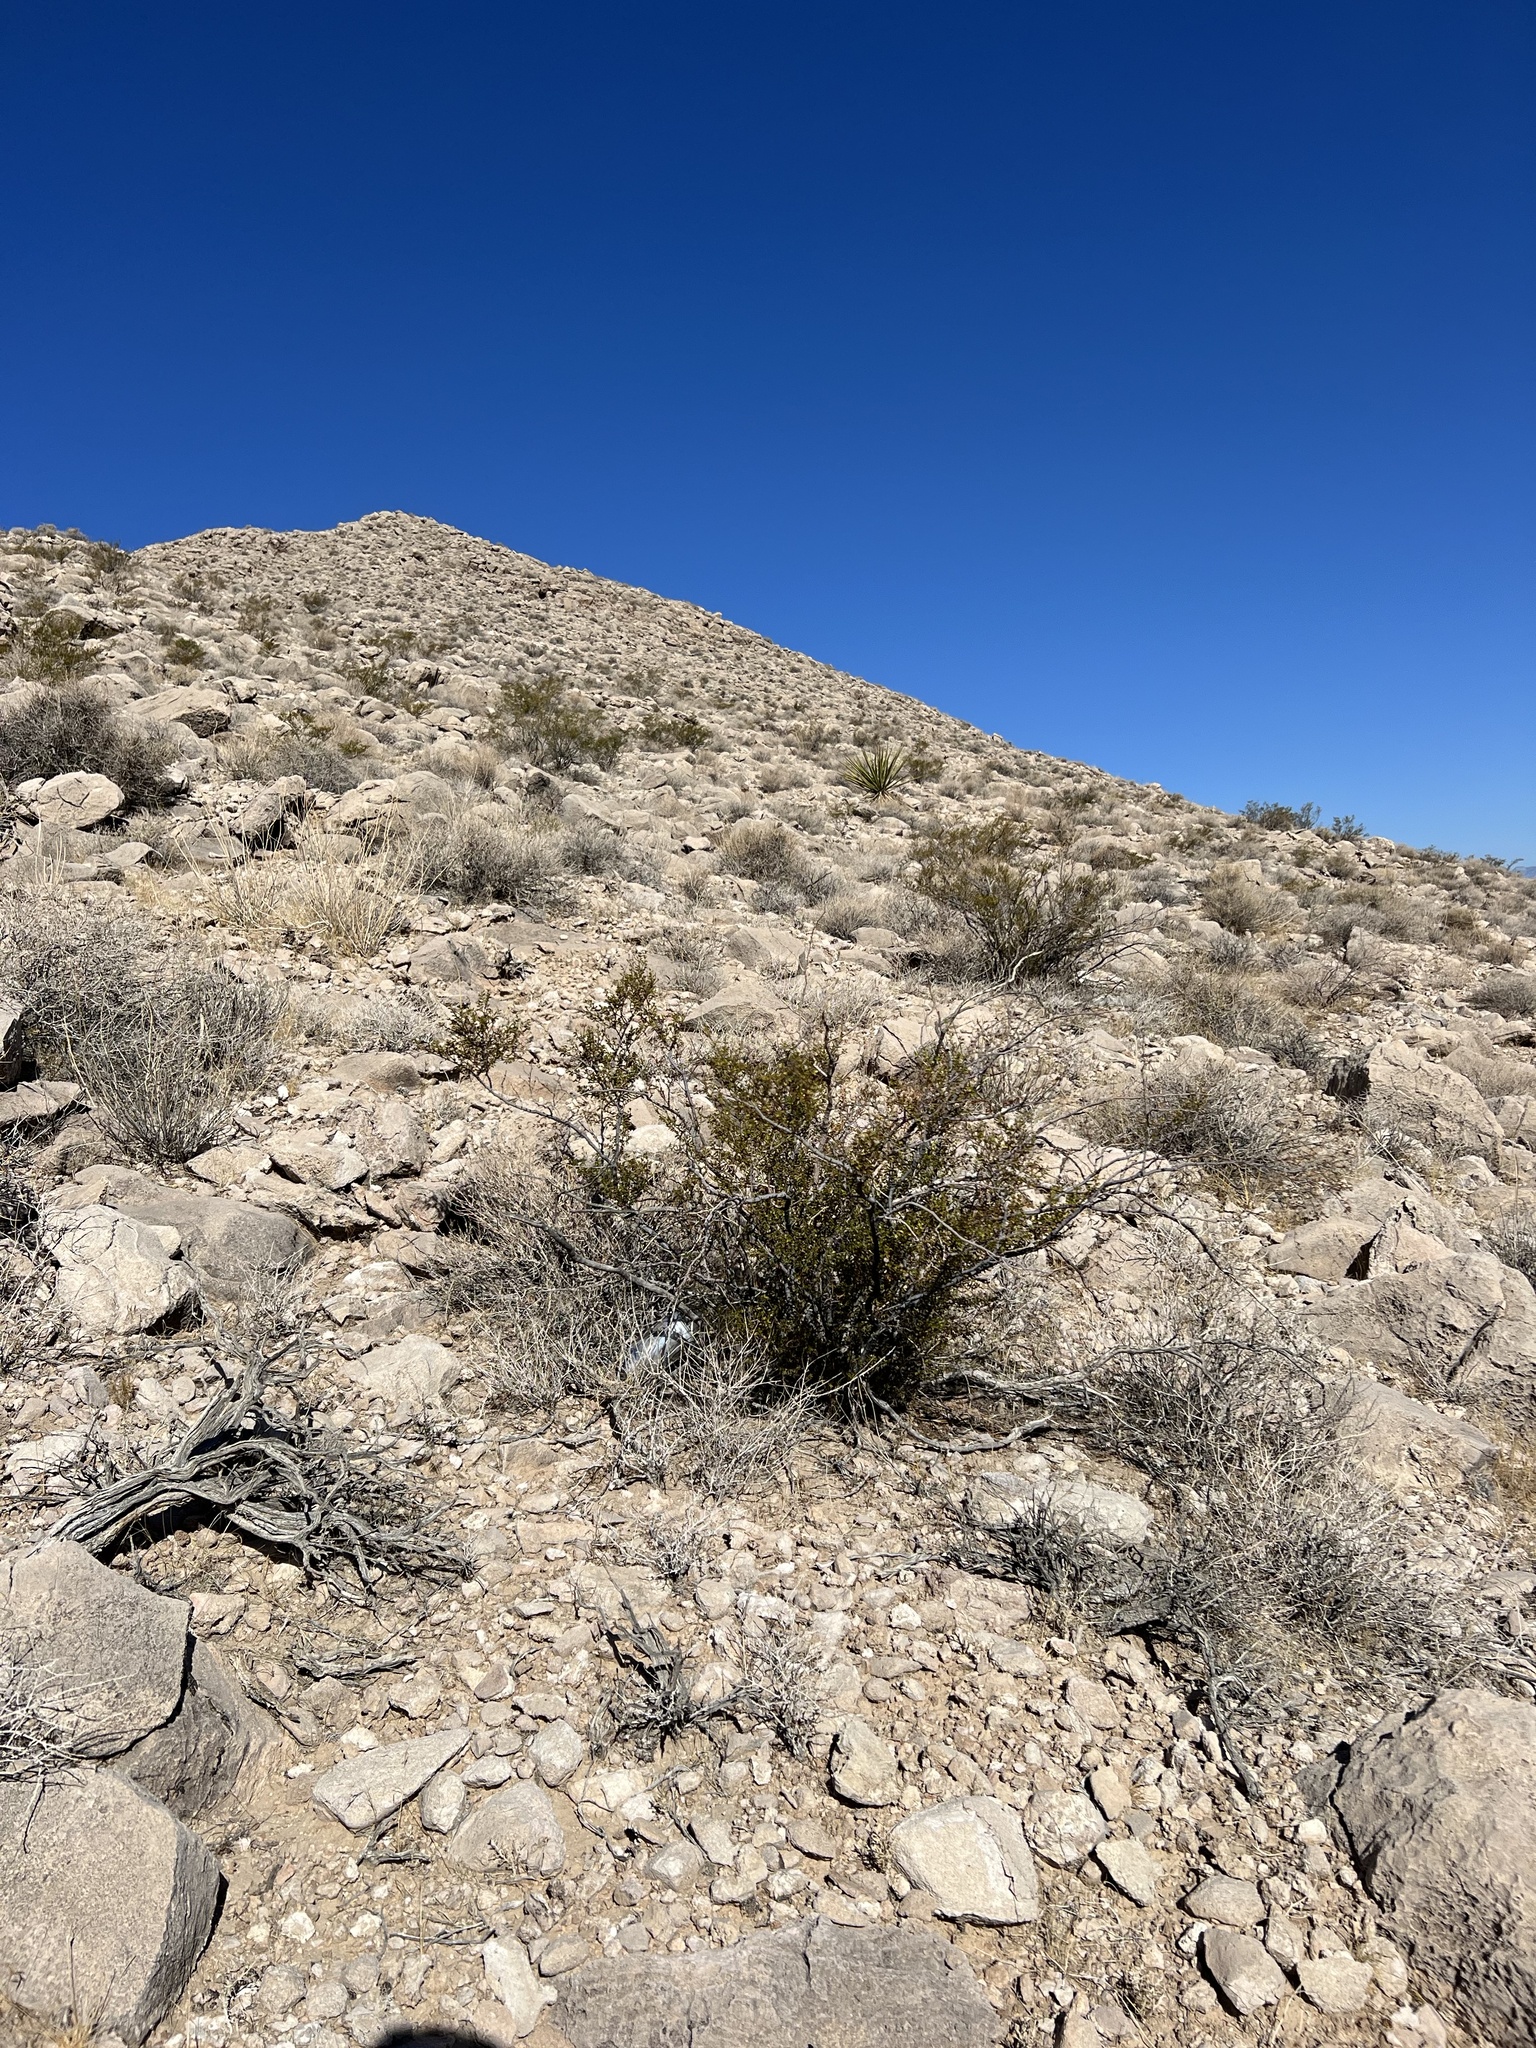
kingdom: Plantae
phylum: Tracheophyta
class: Magnoliopsida
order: Zygophyllales
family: Zygophyllaceae
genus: Larrea
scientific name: Larrea tridentata
